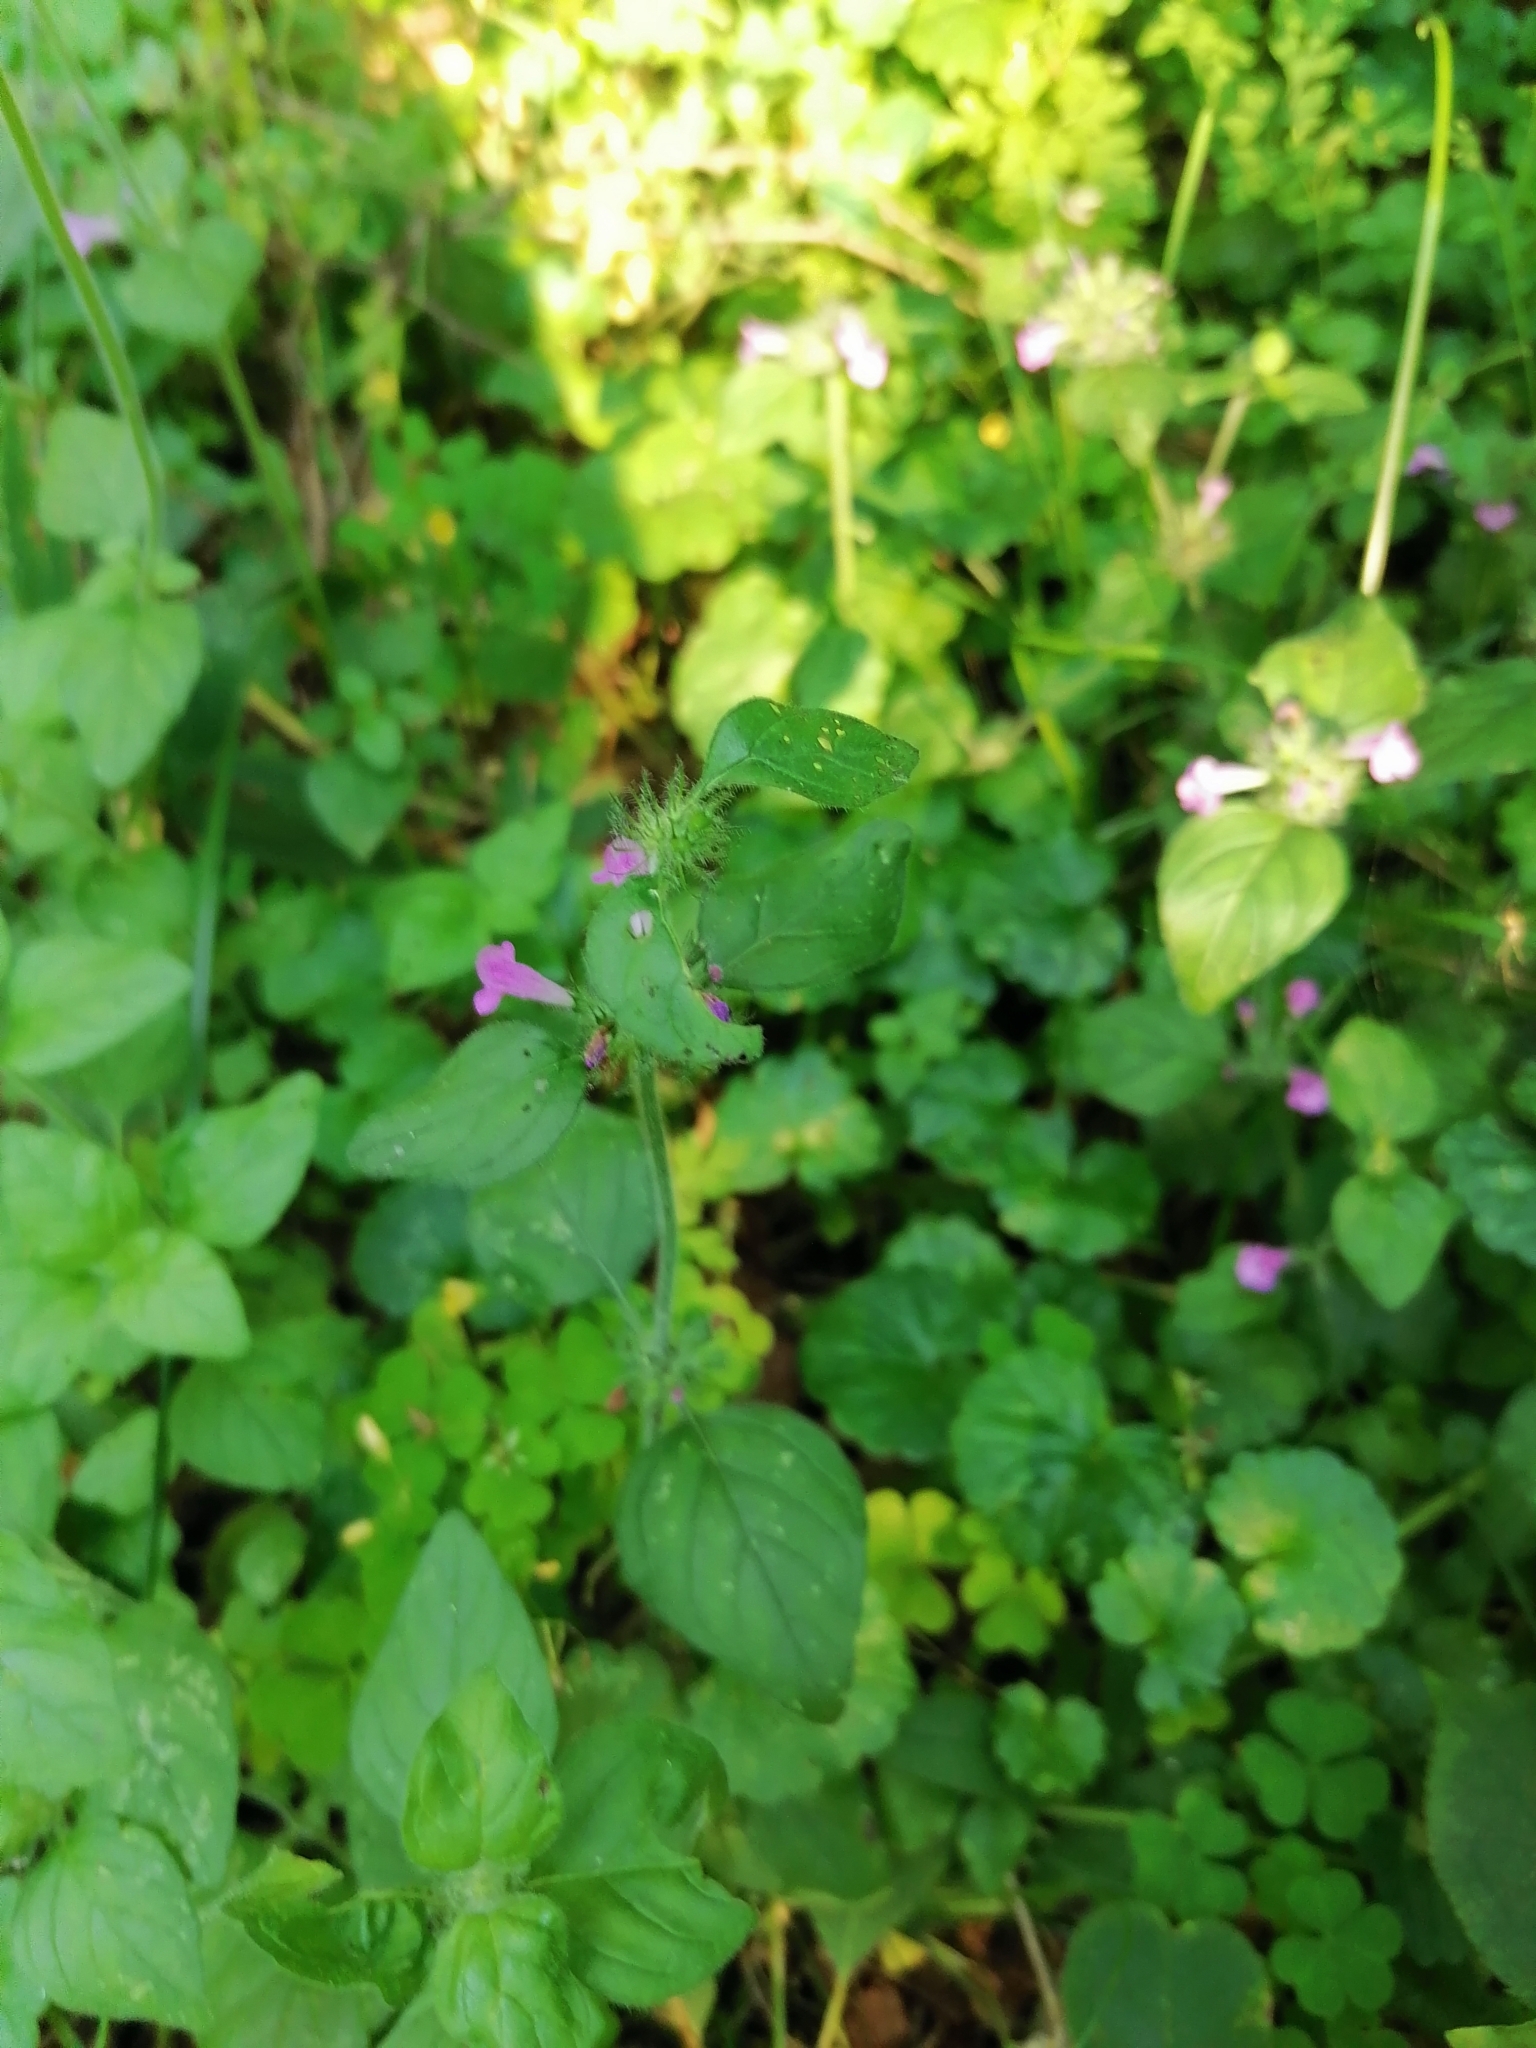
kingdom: Plantae
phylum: Tracheophyta
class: Magnoliopsida
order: Lamiales
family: Lamiaceae
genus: Clinopodium
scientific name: Clinopodium vulgare
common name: Wild basil
